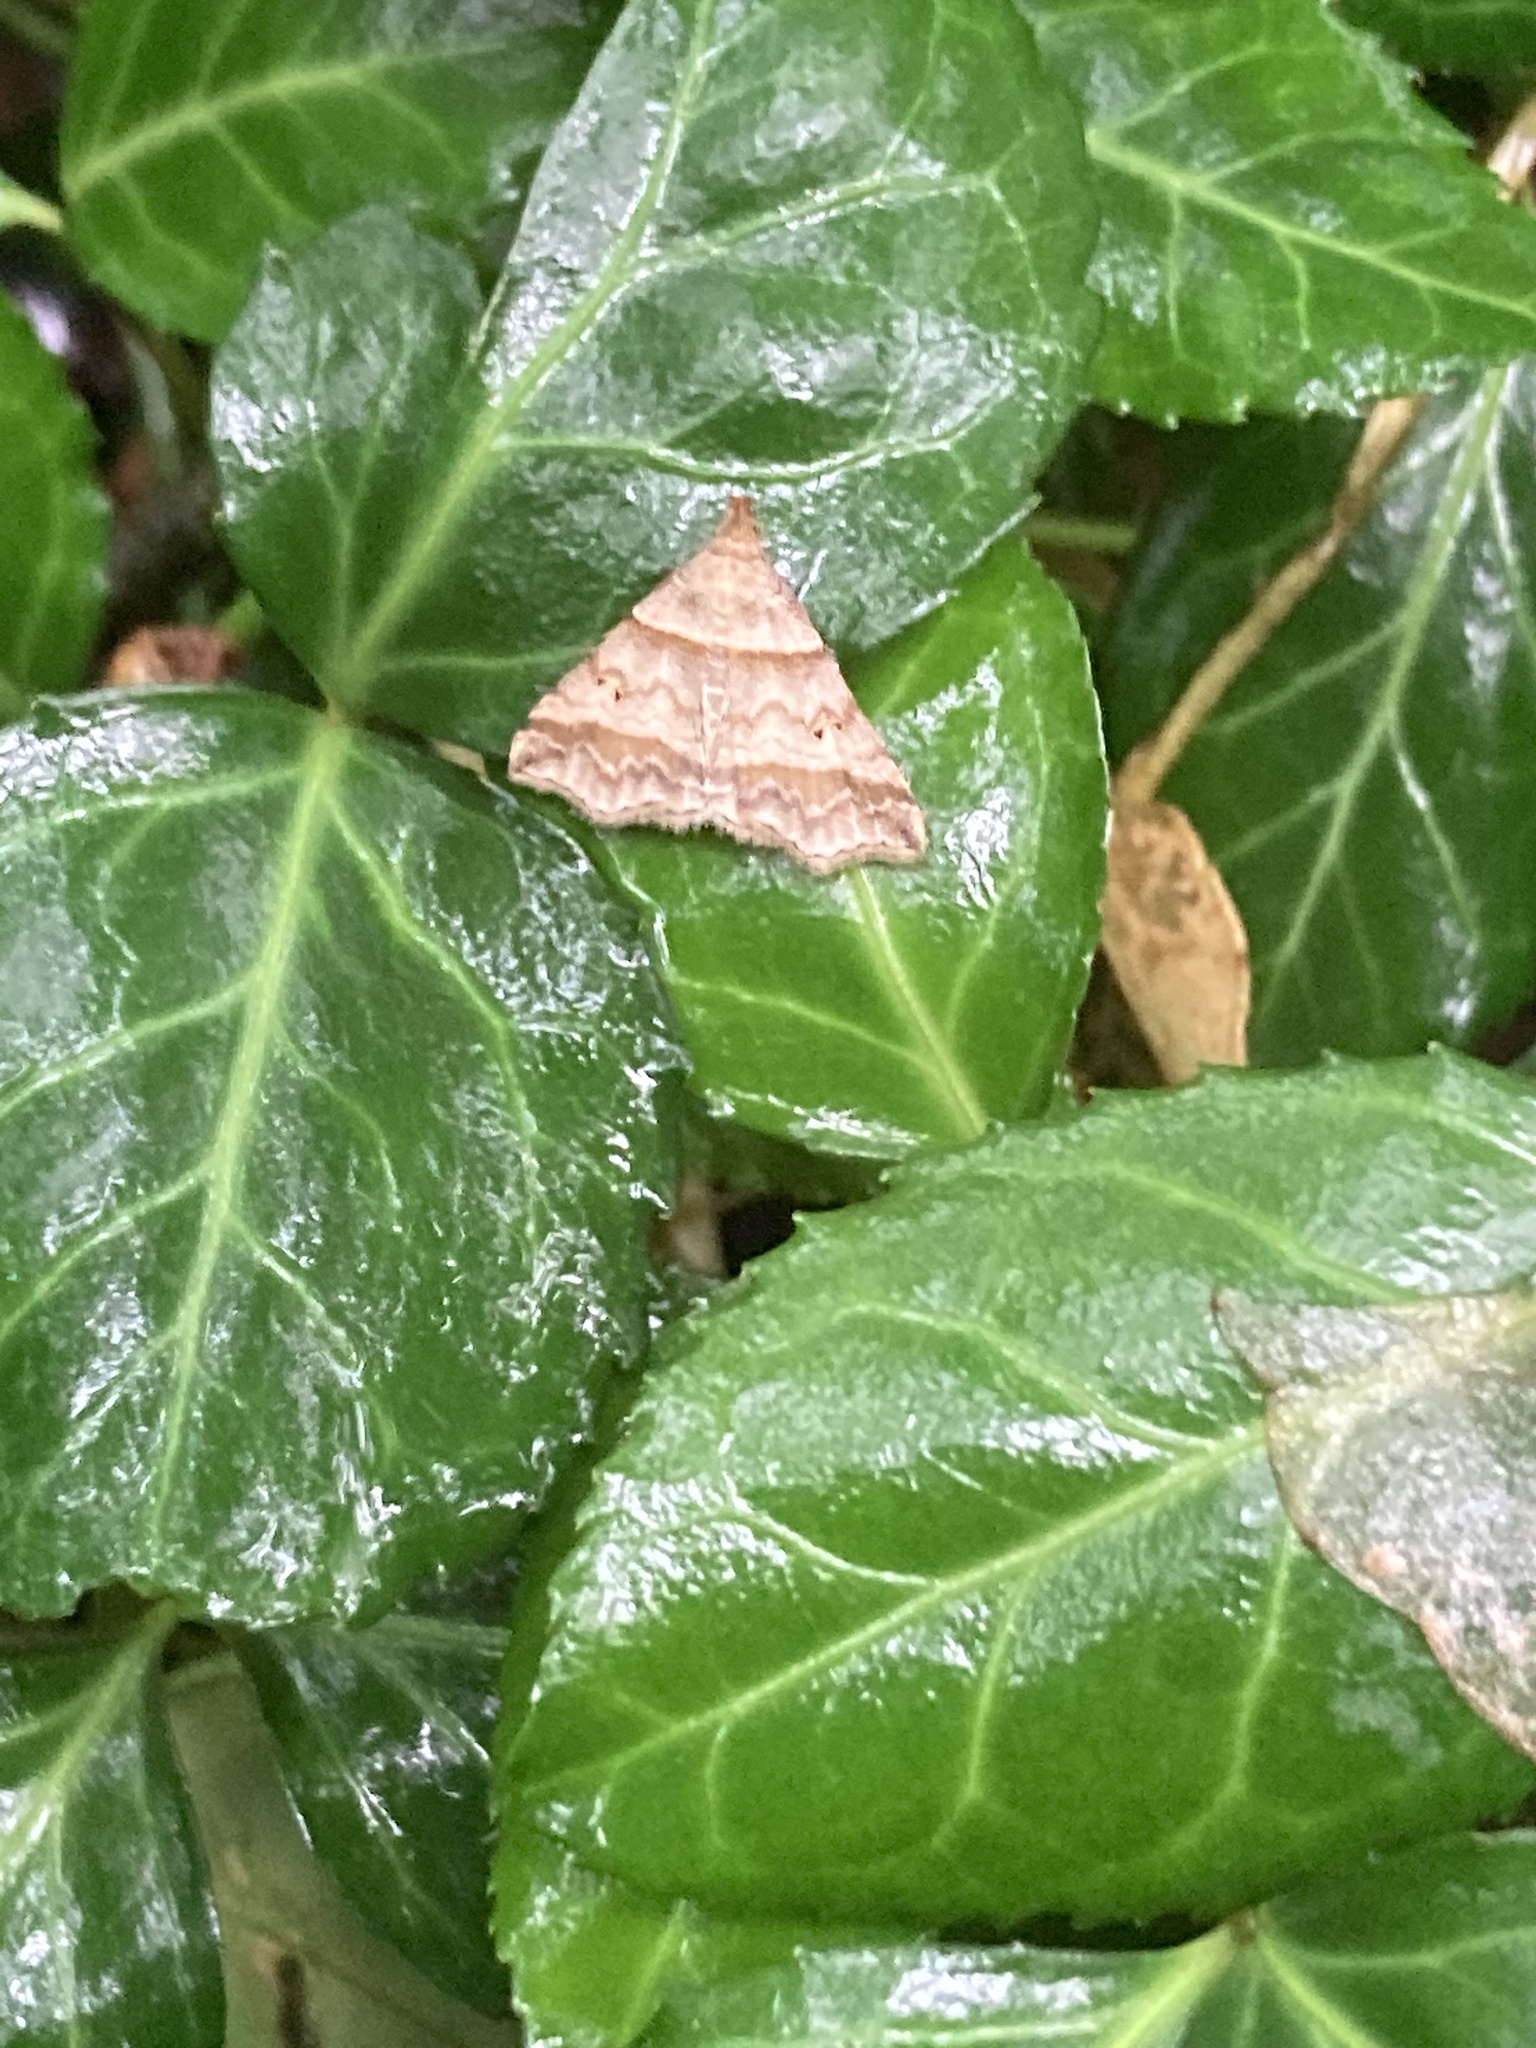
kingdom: Animalia
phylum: Arthropoda
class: Insecta
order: Lepidoptera
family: Erebidae
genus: Phaeolita
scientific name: Phaeolita pyramusalis
